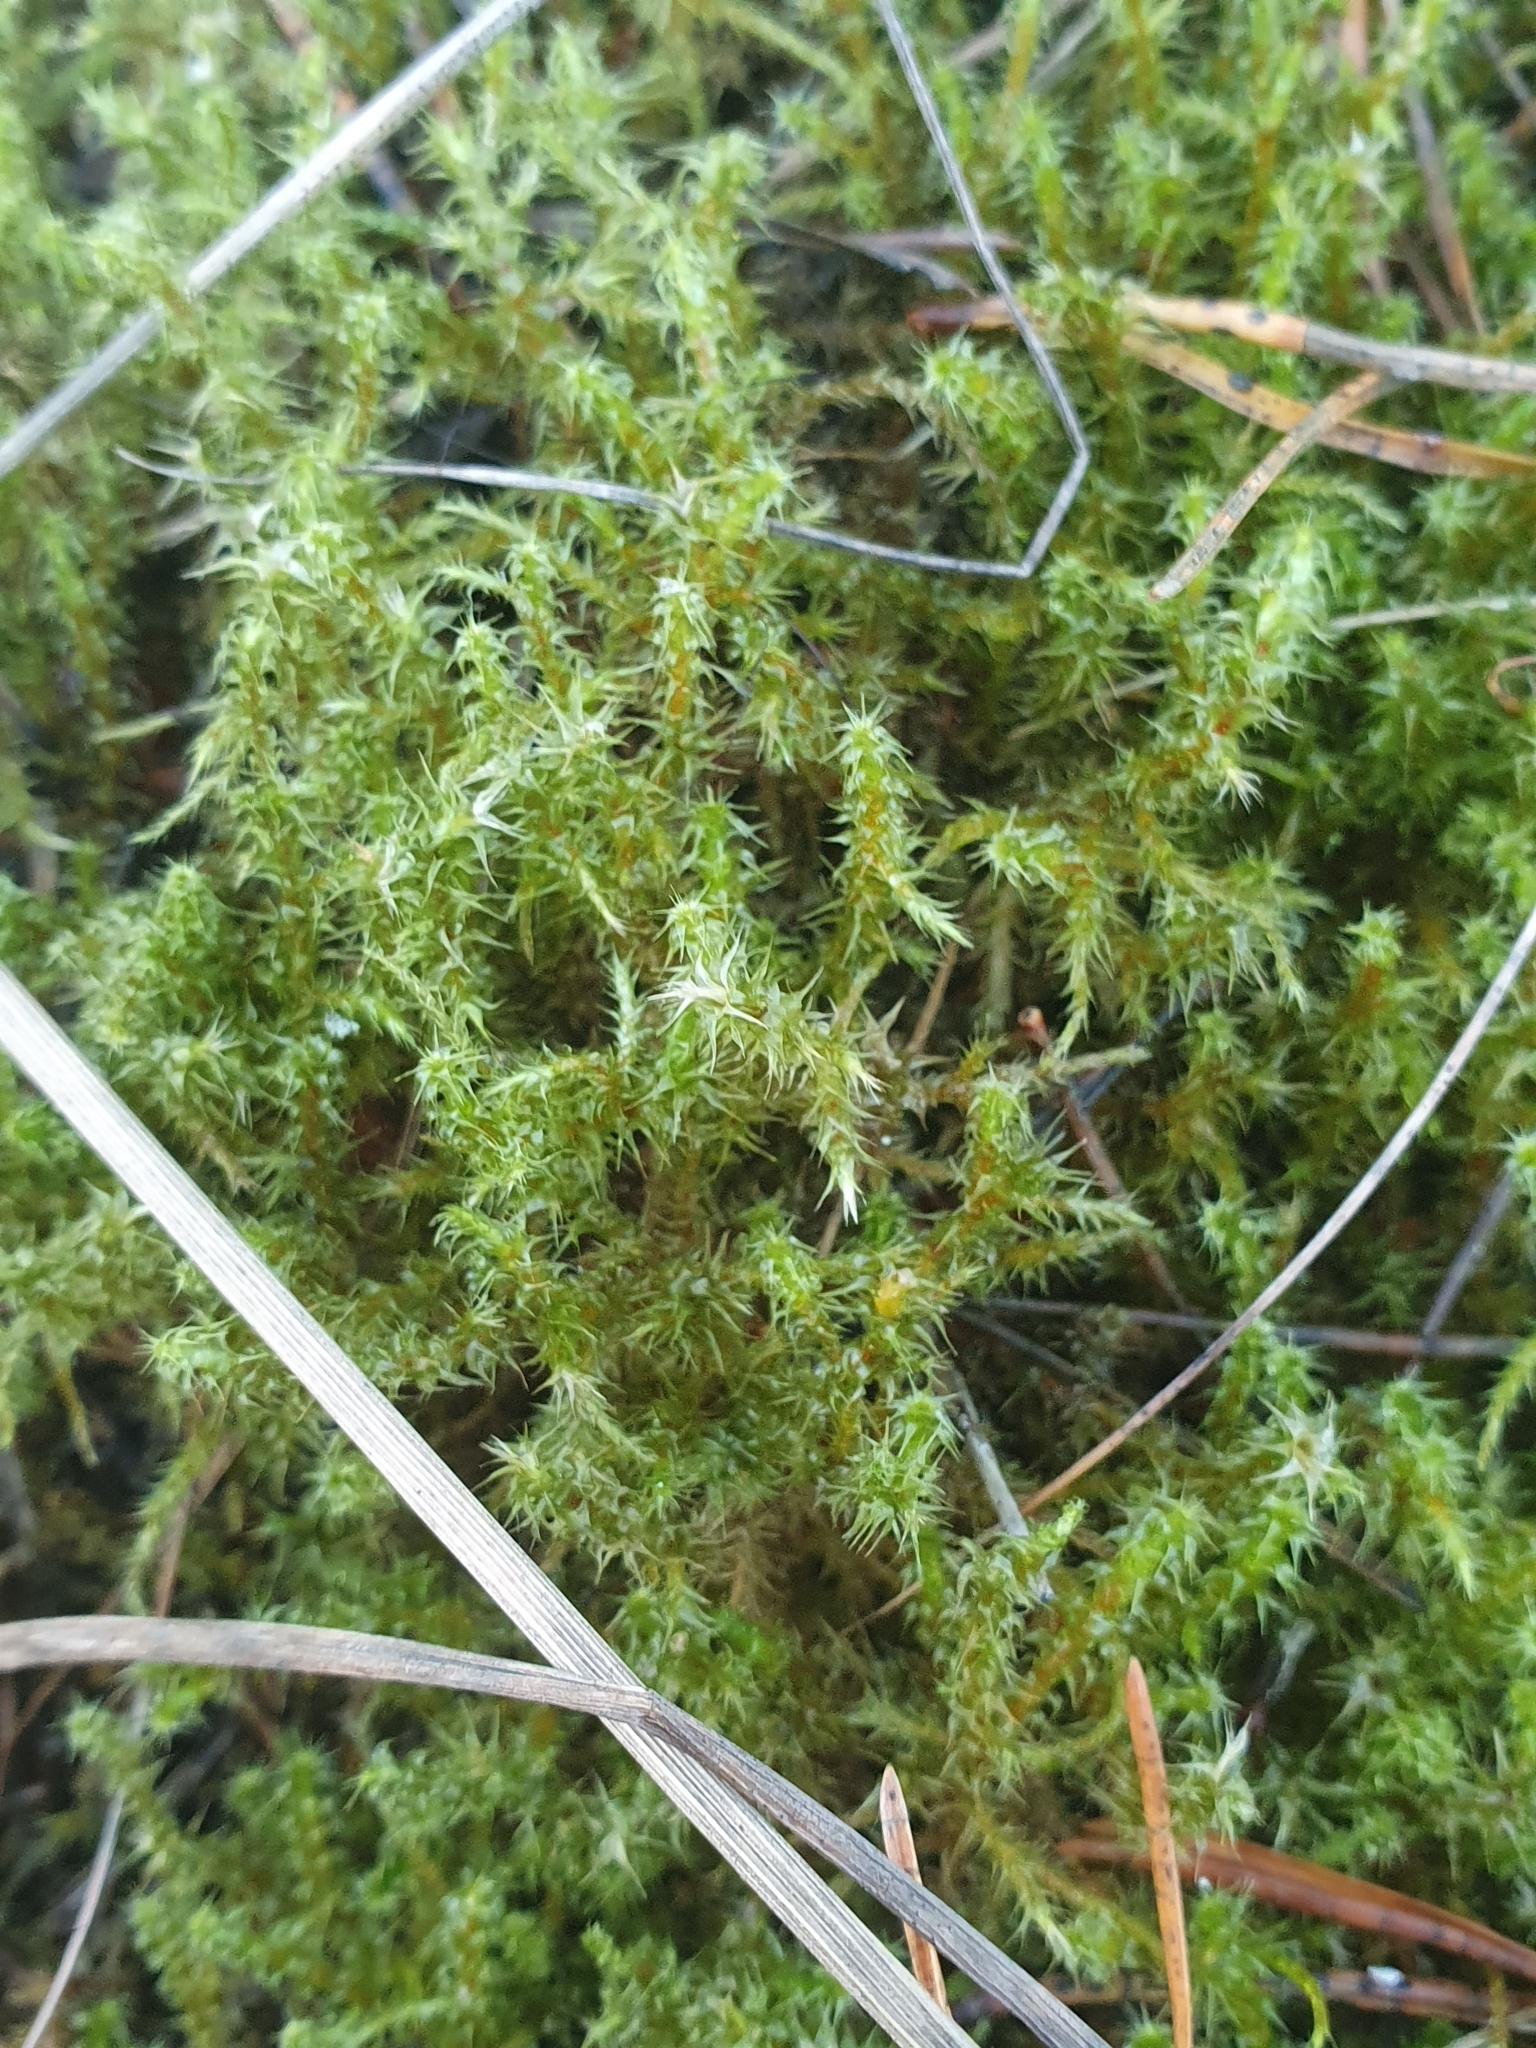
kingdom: Plantae
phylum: Bryophyta
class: Bryopsida
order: Hypnales
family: Hylocomiaceae
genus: Rhytidiadelphus
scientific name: Rhytidiadelphus squarrosus
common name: Springy turf-moss
